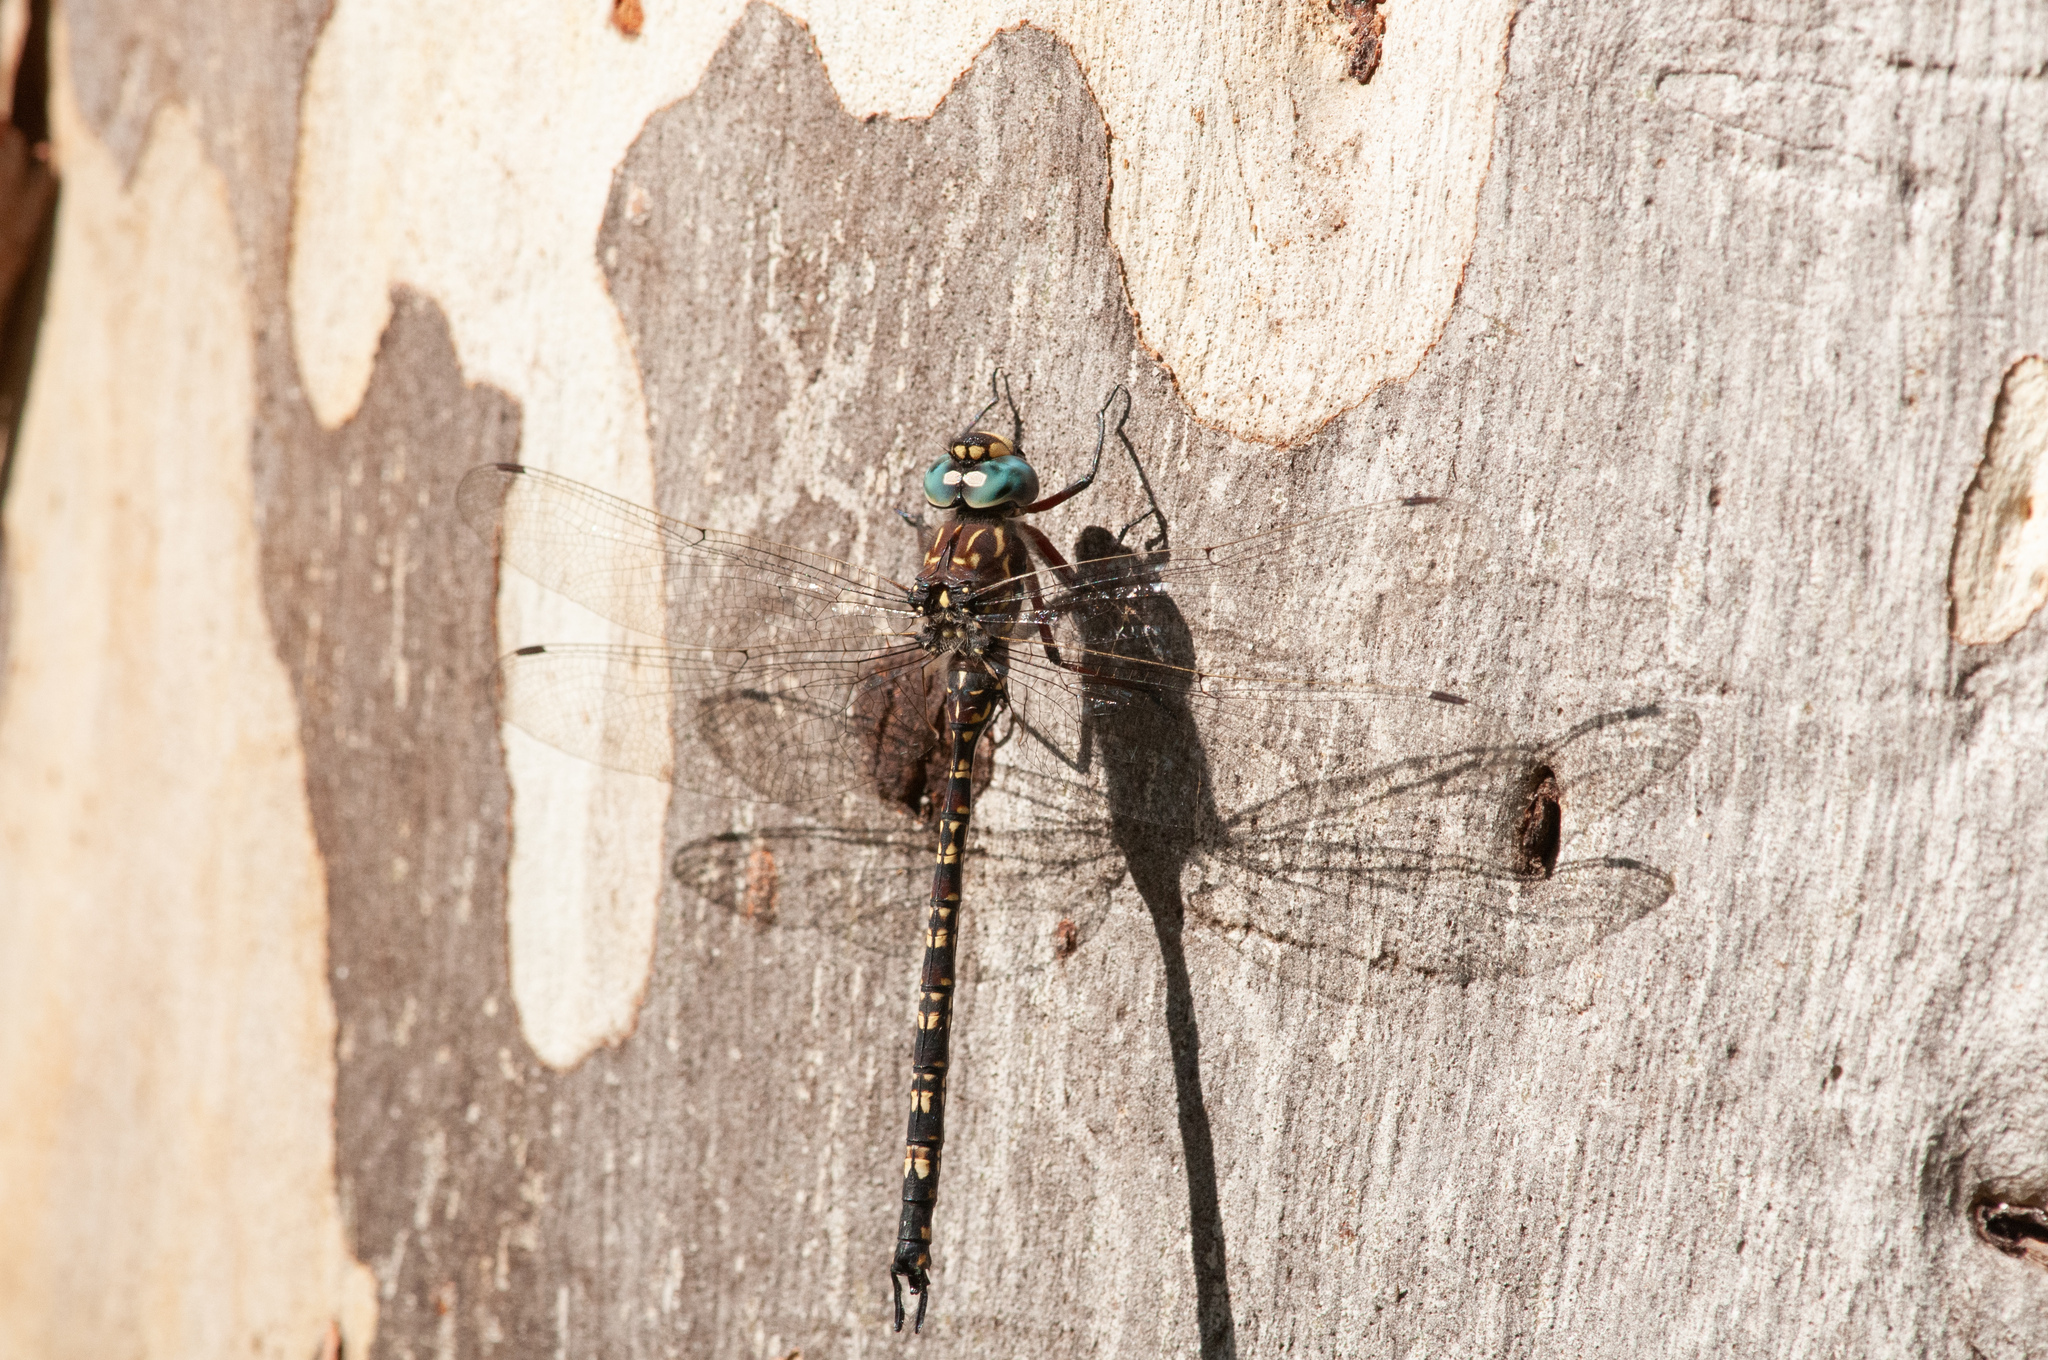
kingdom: Animalia
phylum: Arthropoda
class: Insecta
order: Odonata
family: Aeshnidae
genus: Austroaeschna
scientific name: Austroaeschna multipunctata
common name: Multi-spotted darner
